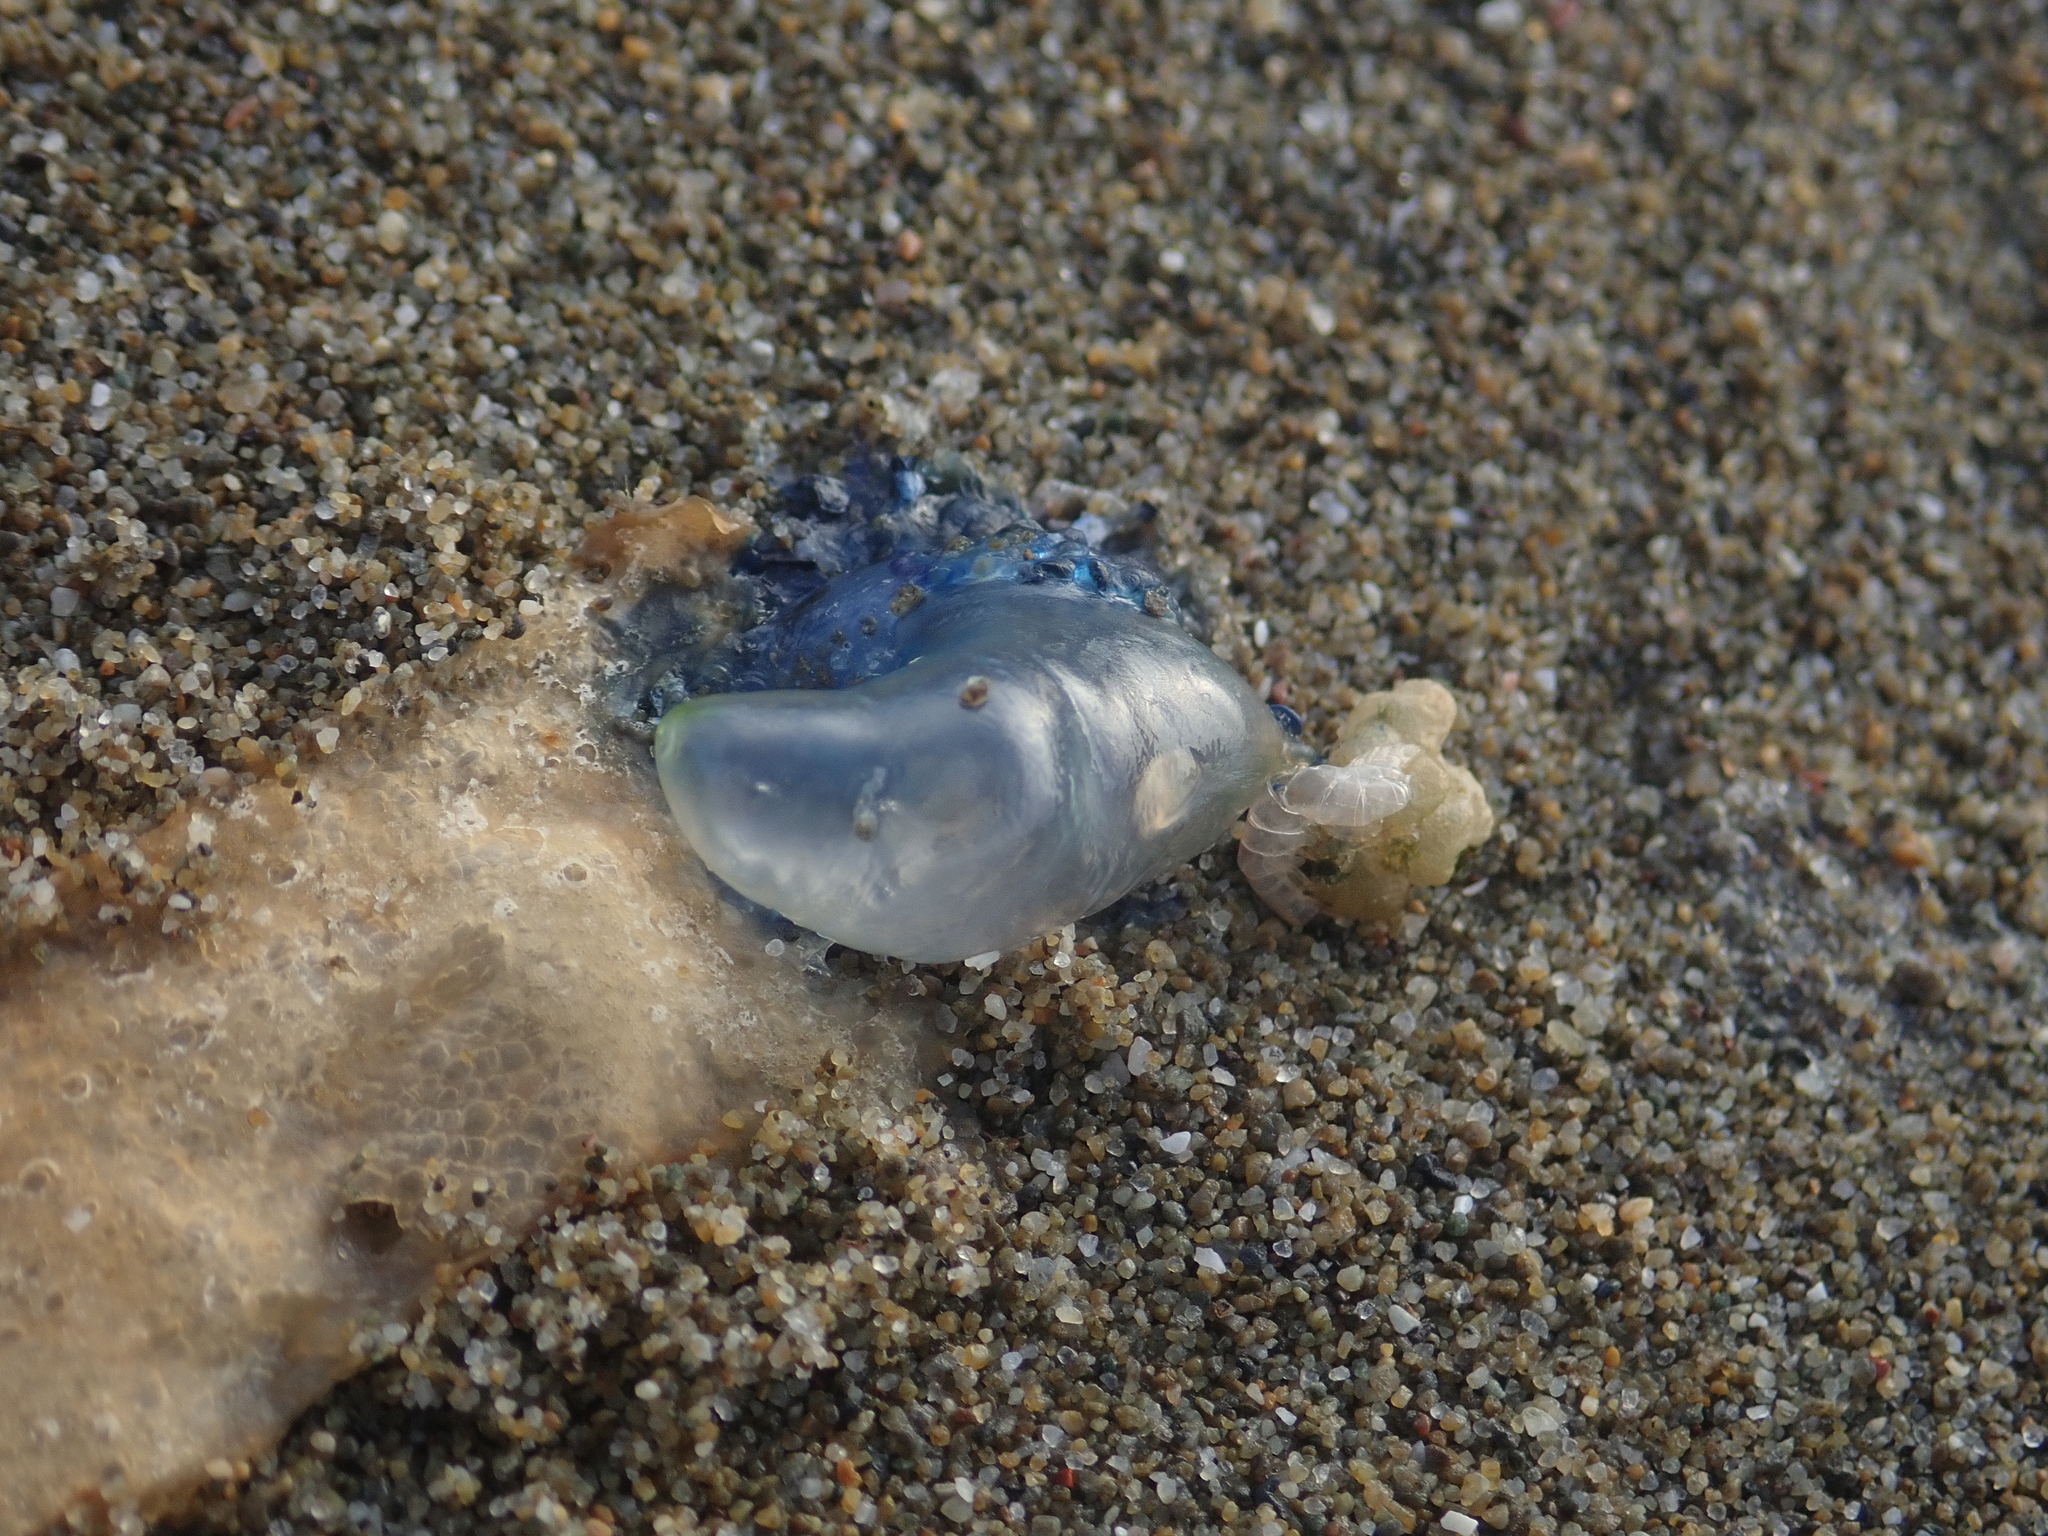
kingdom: Animalia
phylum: Cnidaria
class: Hydrozoa
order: Siphonophorae
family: Physaliidae
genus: Physalia
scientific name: Physalia physalis
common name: Portuguese man-of-war
